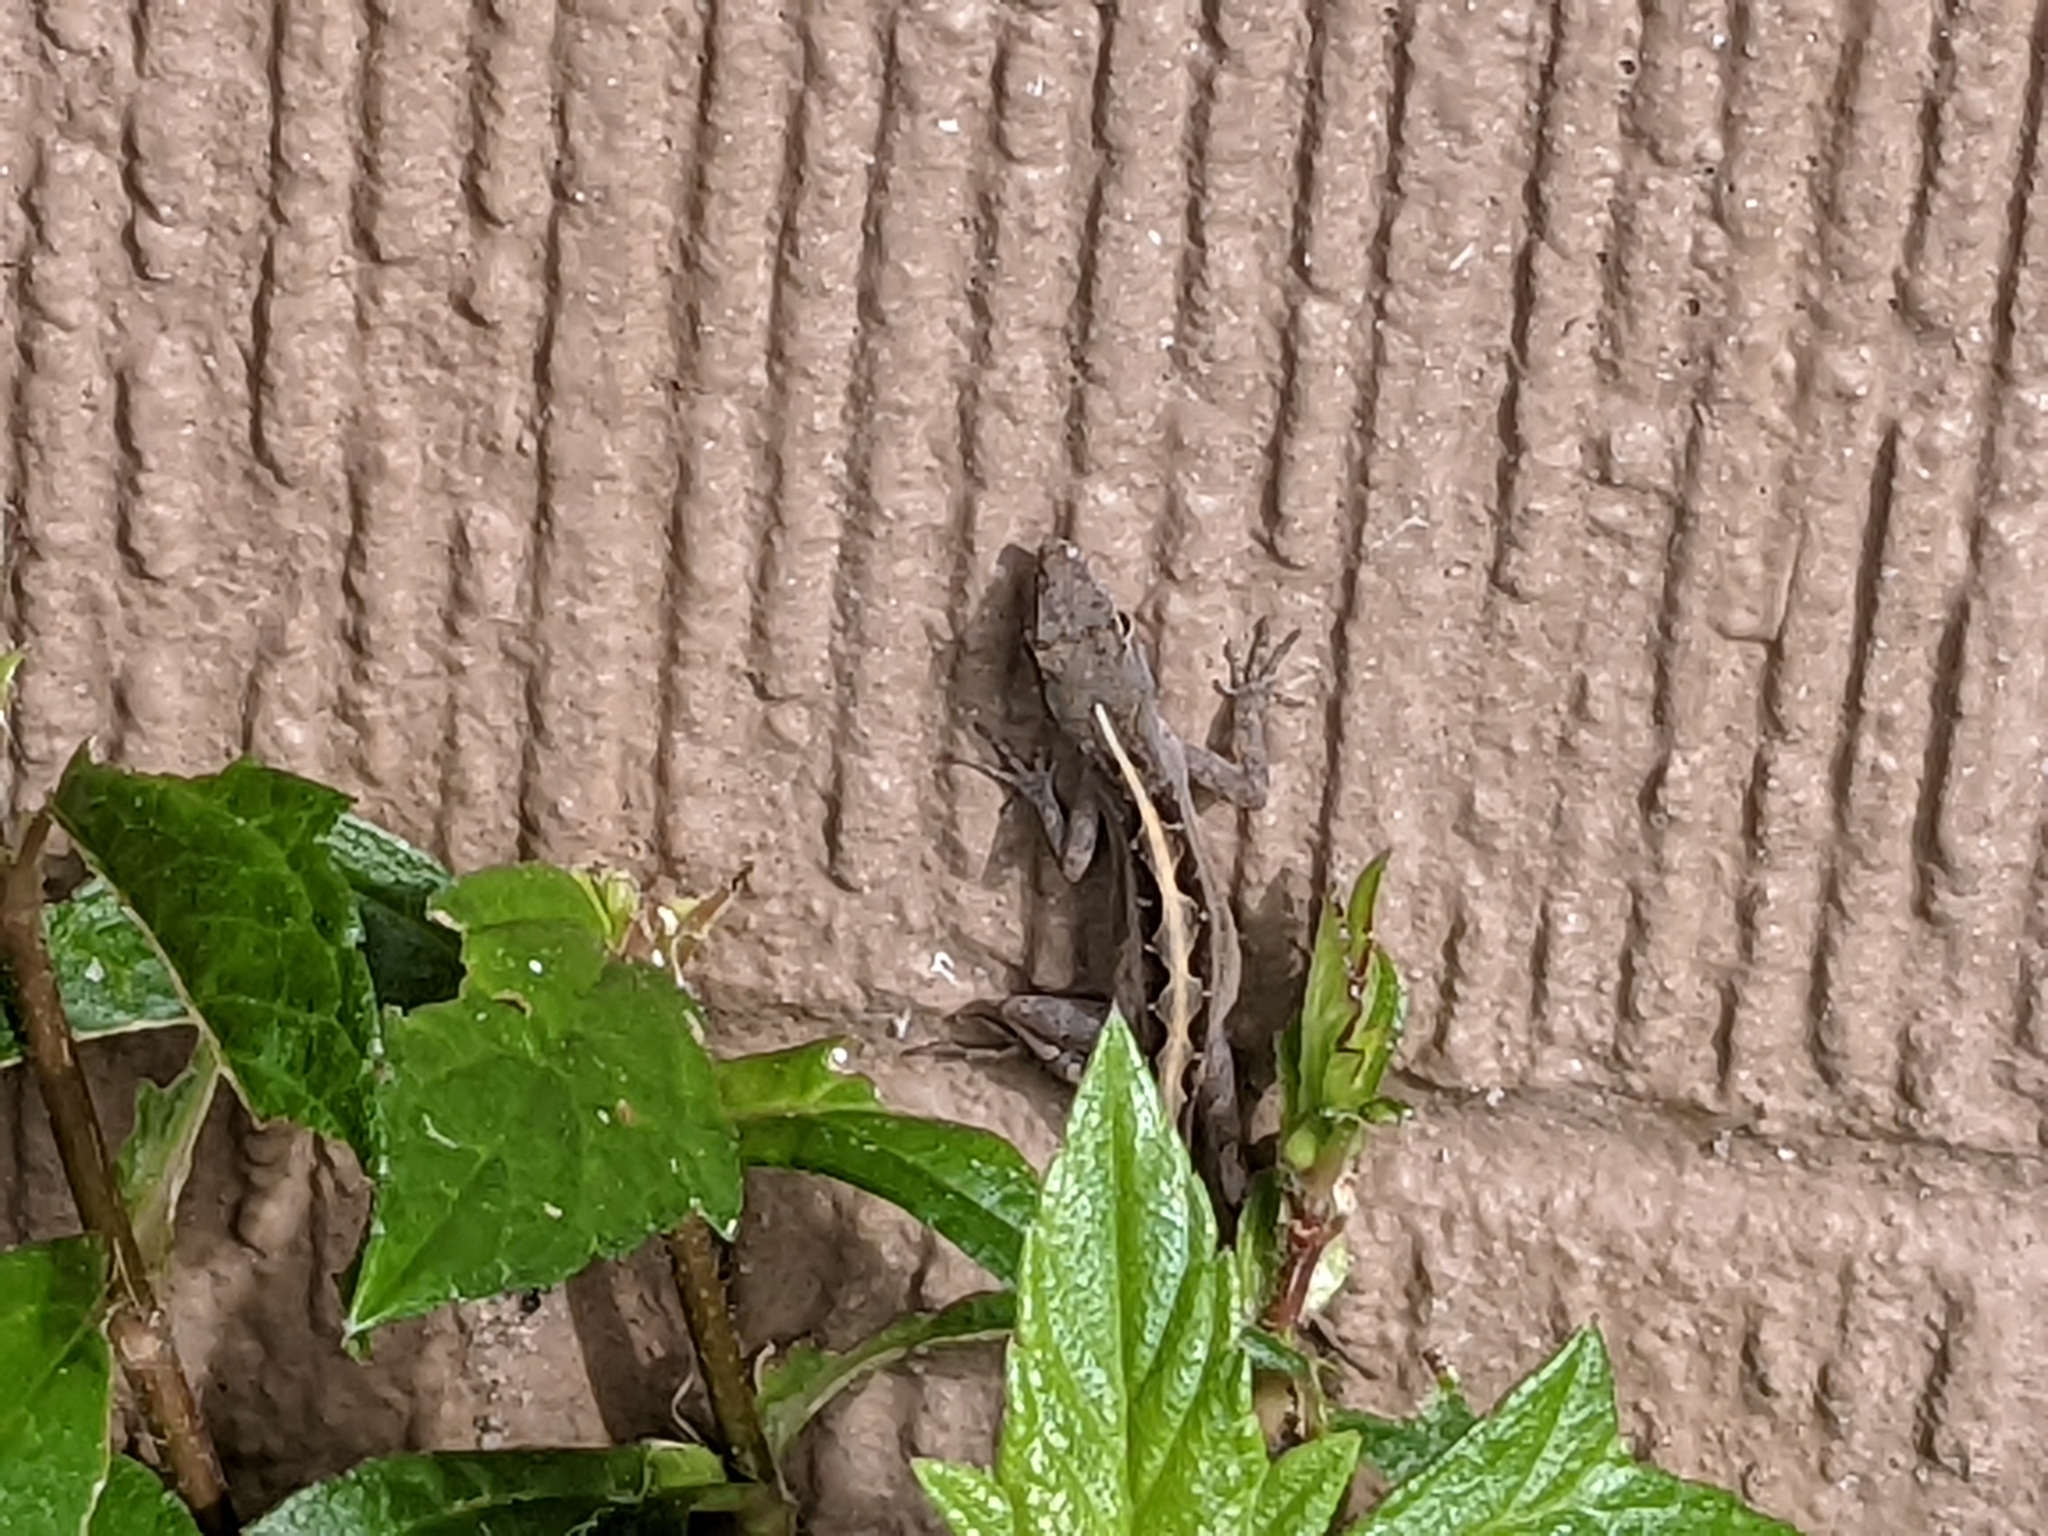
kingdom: Animalia
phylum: Chordata
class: Squamata
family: Dactyloidae
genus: Anolis
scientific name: Anolis sagrei
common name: Brown anole
